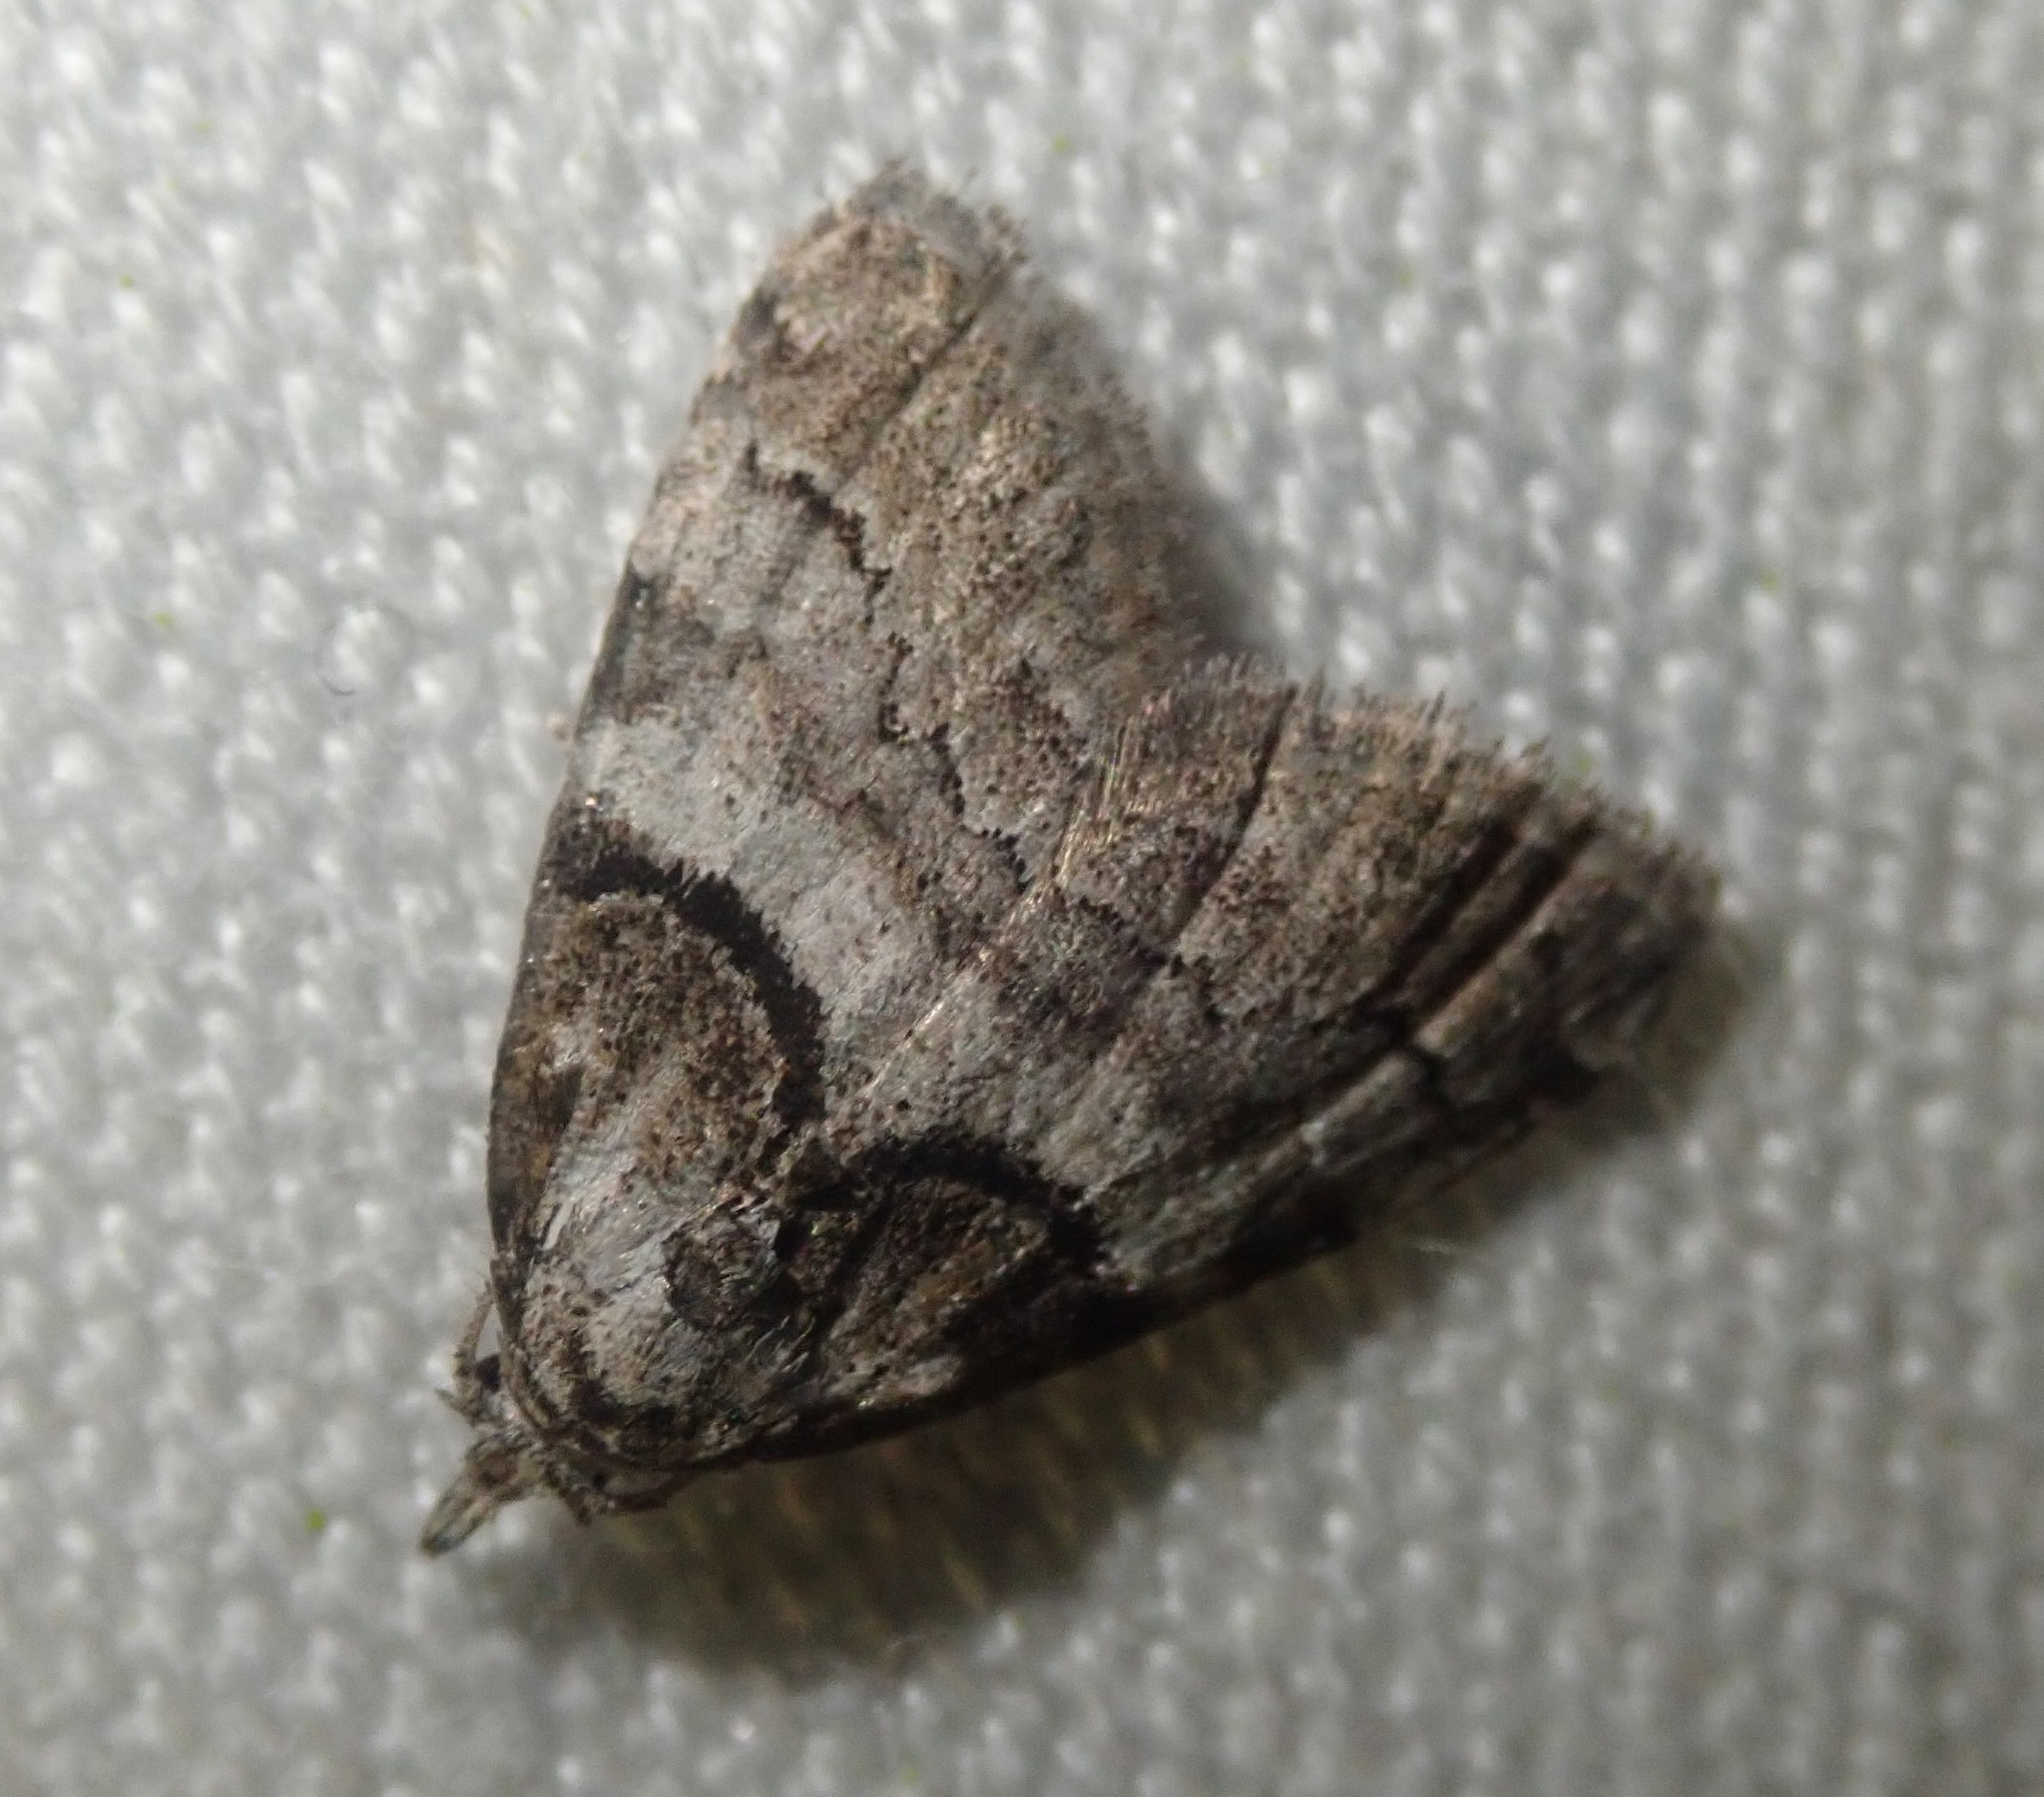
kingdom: Animalia
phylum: Arthropoda
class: Insecta
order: Lepidoptera
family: Nolidae
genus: Nola
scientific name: Nola cucullatella
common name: Short-cloaked moth
